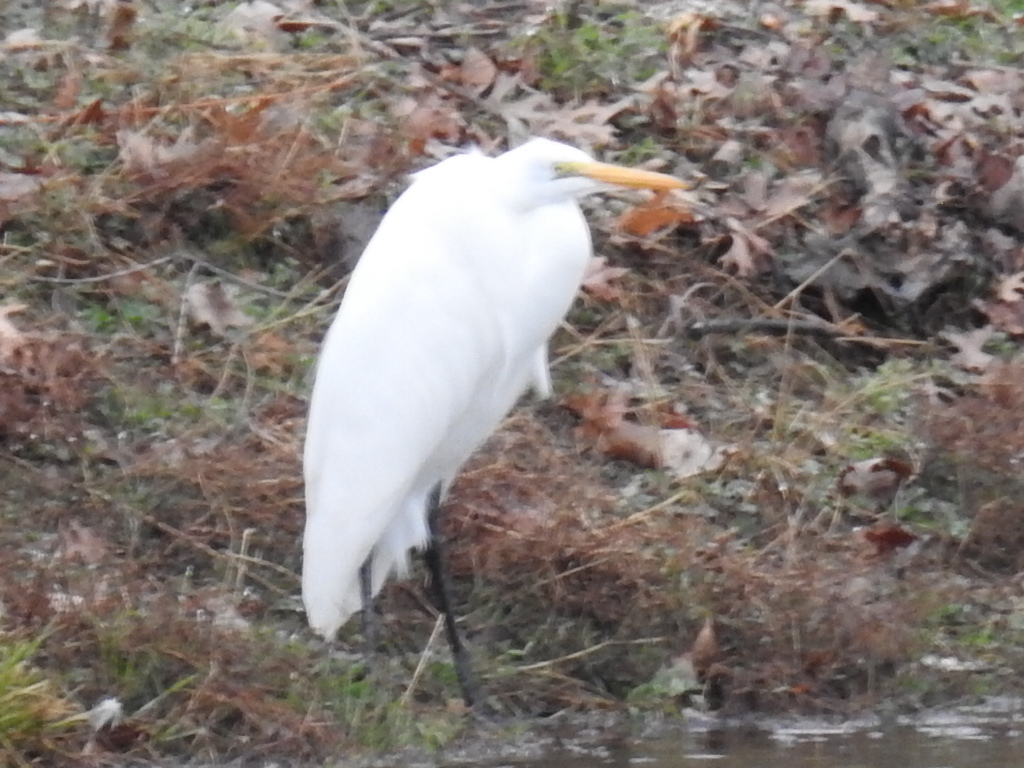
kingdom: Animalia
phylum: Chordata
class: Aves
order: Pelecaniformes
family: Ardeidae
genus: Ardea
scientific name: Ardea alba
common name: Great egret
